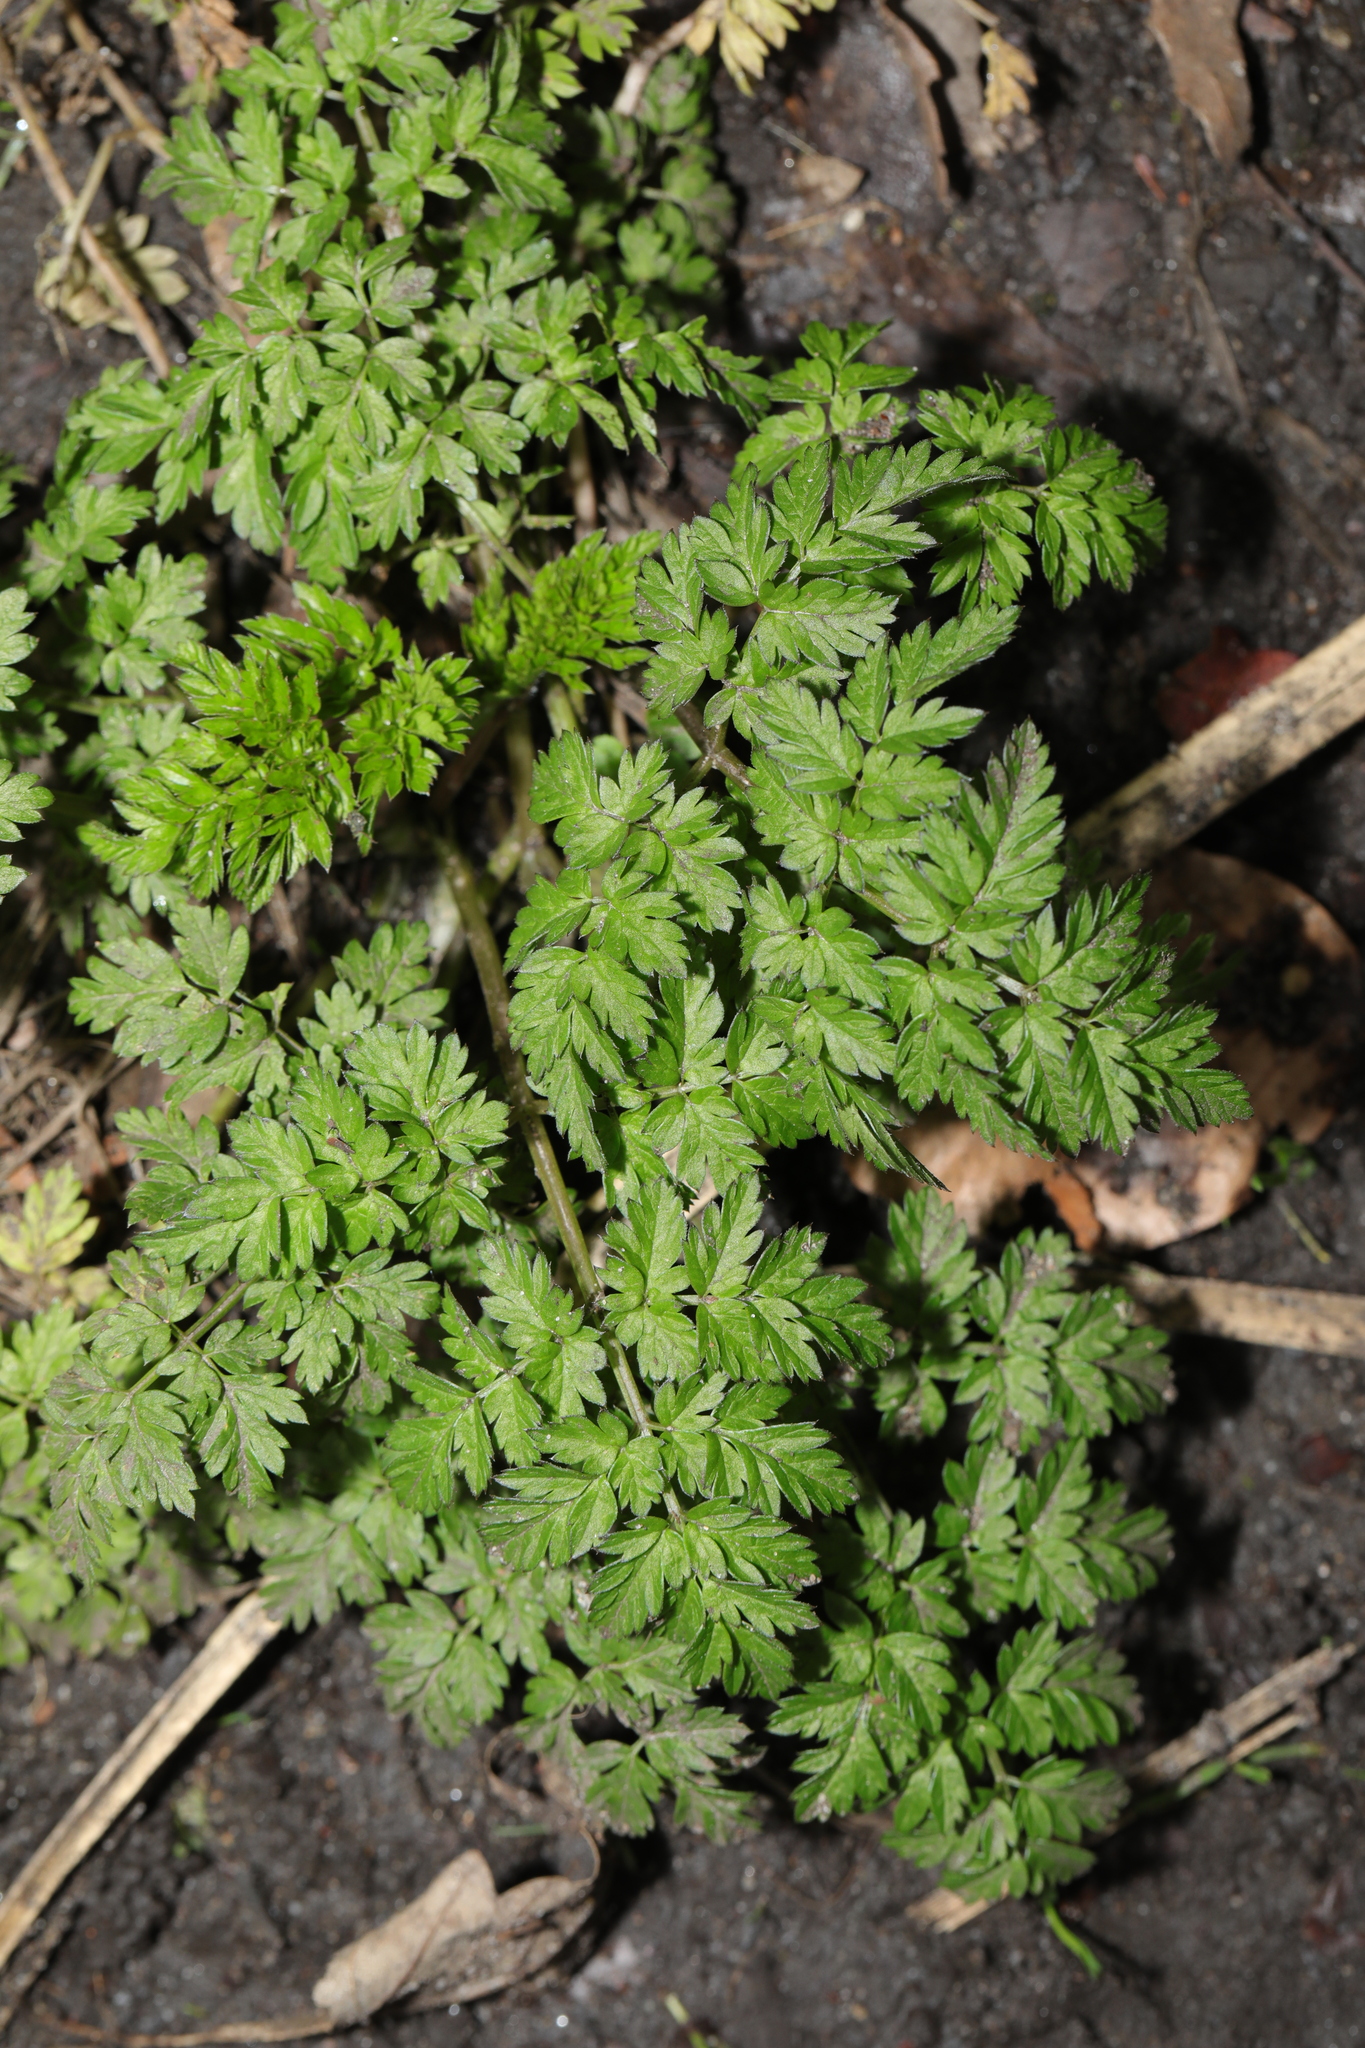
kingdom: Plantae
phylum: Tracheophyta
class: Magnoliopsida
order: Apiales
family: Apiaceae
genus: Anthriscus
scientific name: Anthriscus sylvestris
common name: Cow parsley
